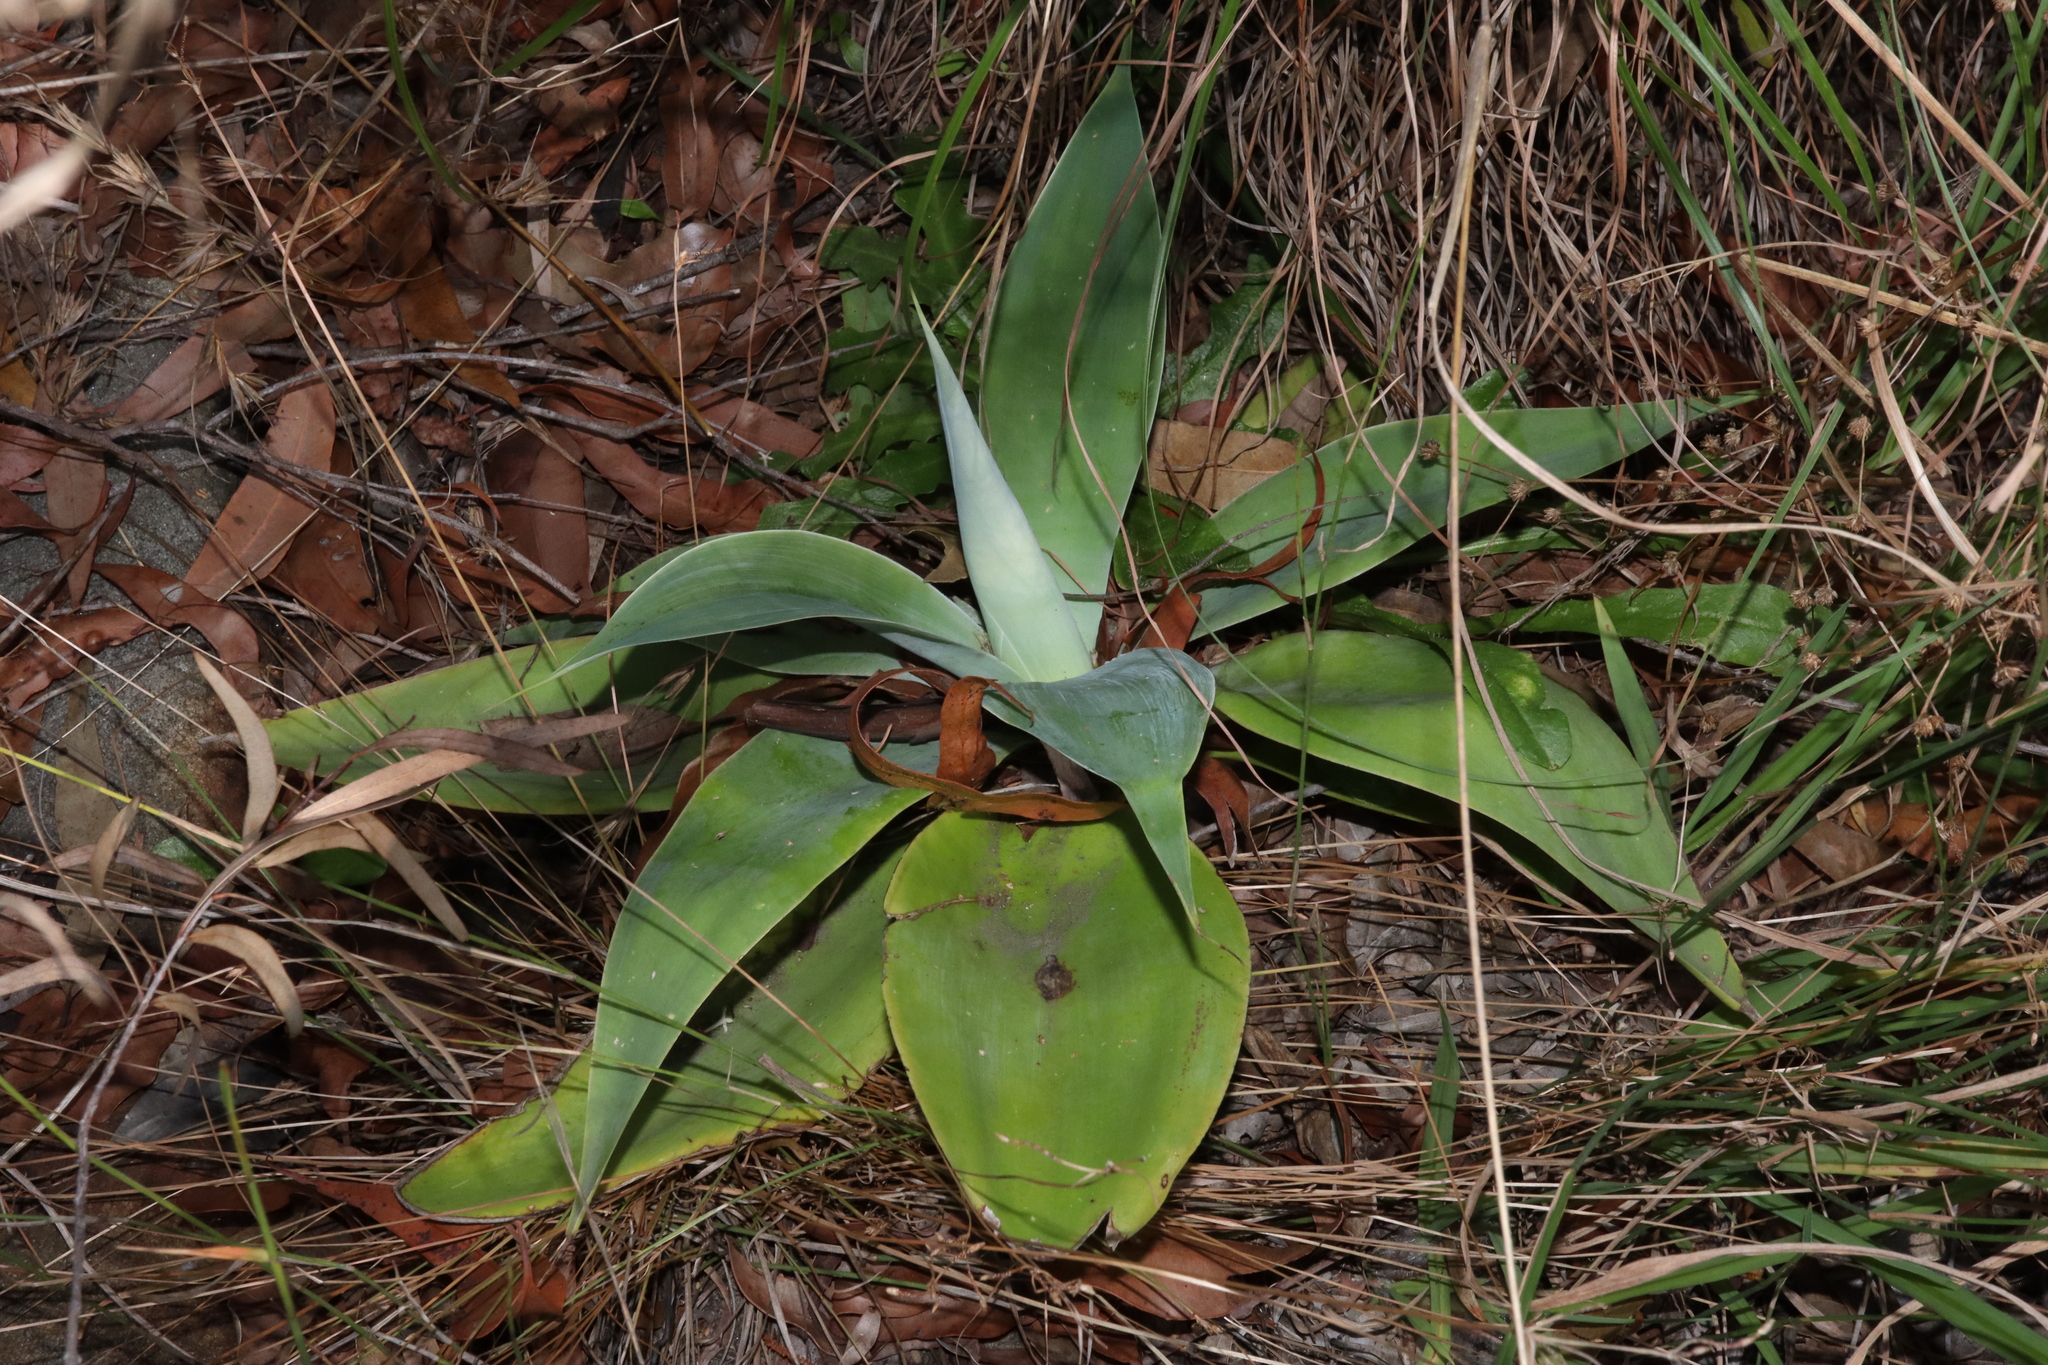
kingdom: Plantae
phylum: Tracheophyta
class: Liliopsida
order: Asparagales
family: Asparagaceae
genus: Agave
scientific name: Agave attenuata
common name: Fox tail agave
